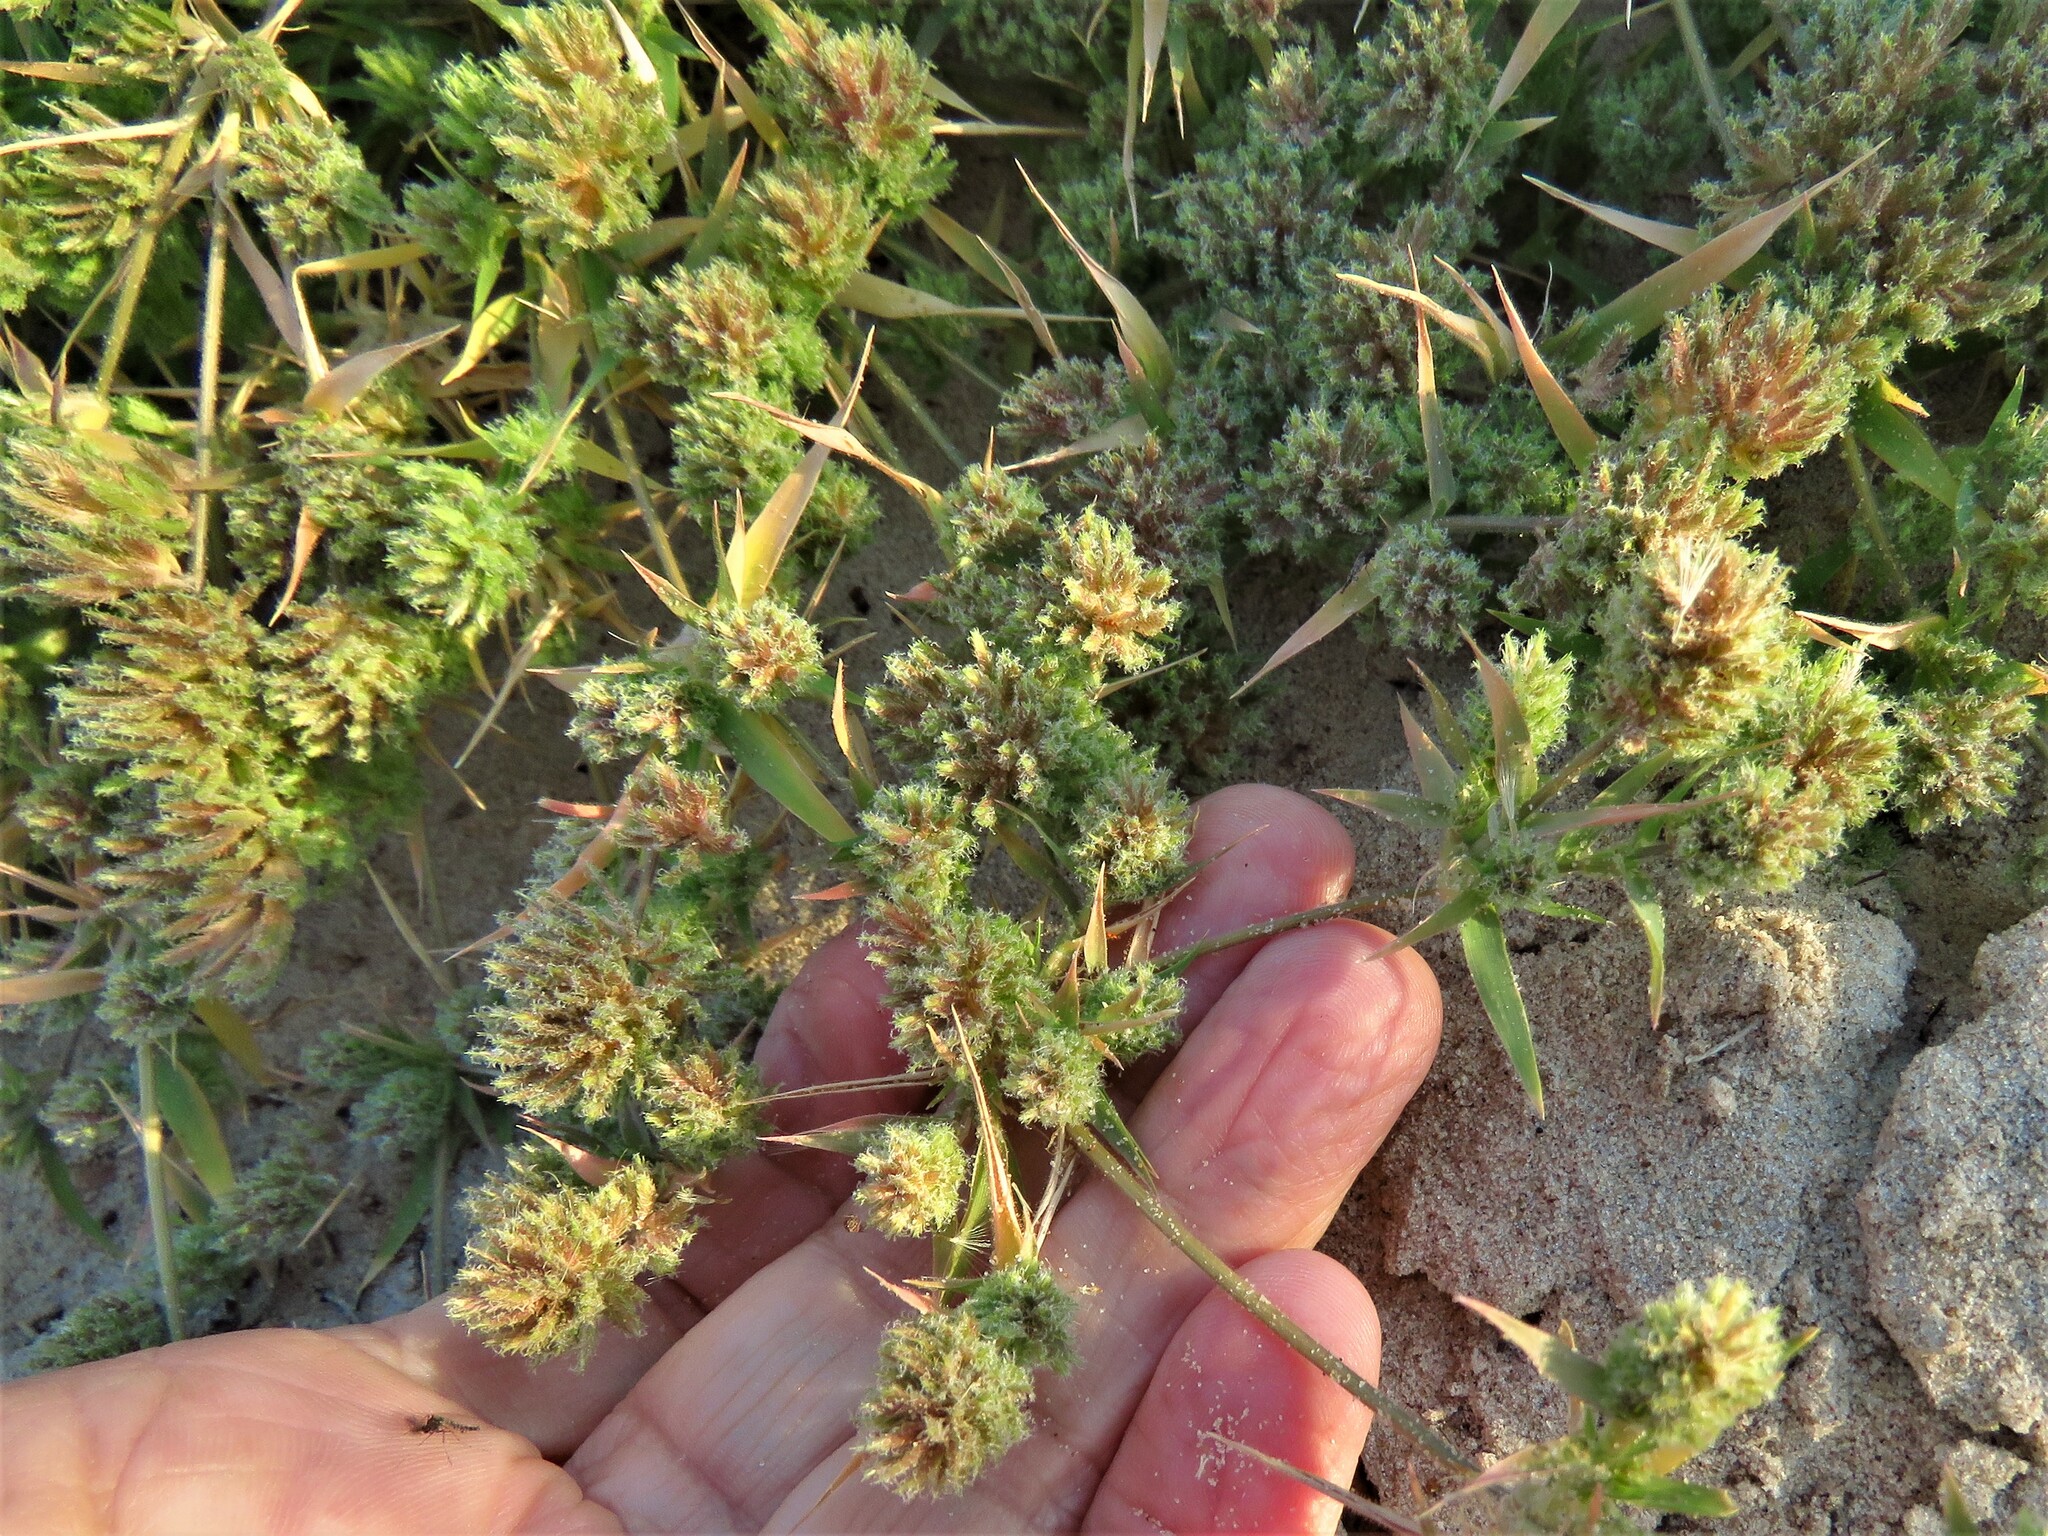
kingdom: Plantae
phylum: Tracheophyta
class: Liliopsida
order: Poales
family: Poaceae
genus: Eragrostis
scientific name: Eragrostis reptans
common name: Creeping love grass
